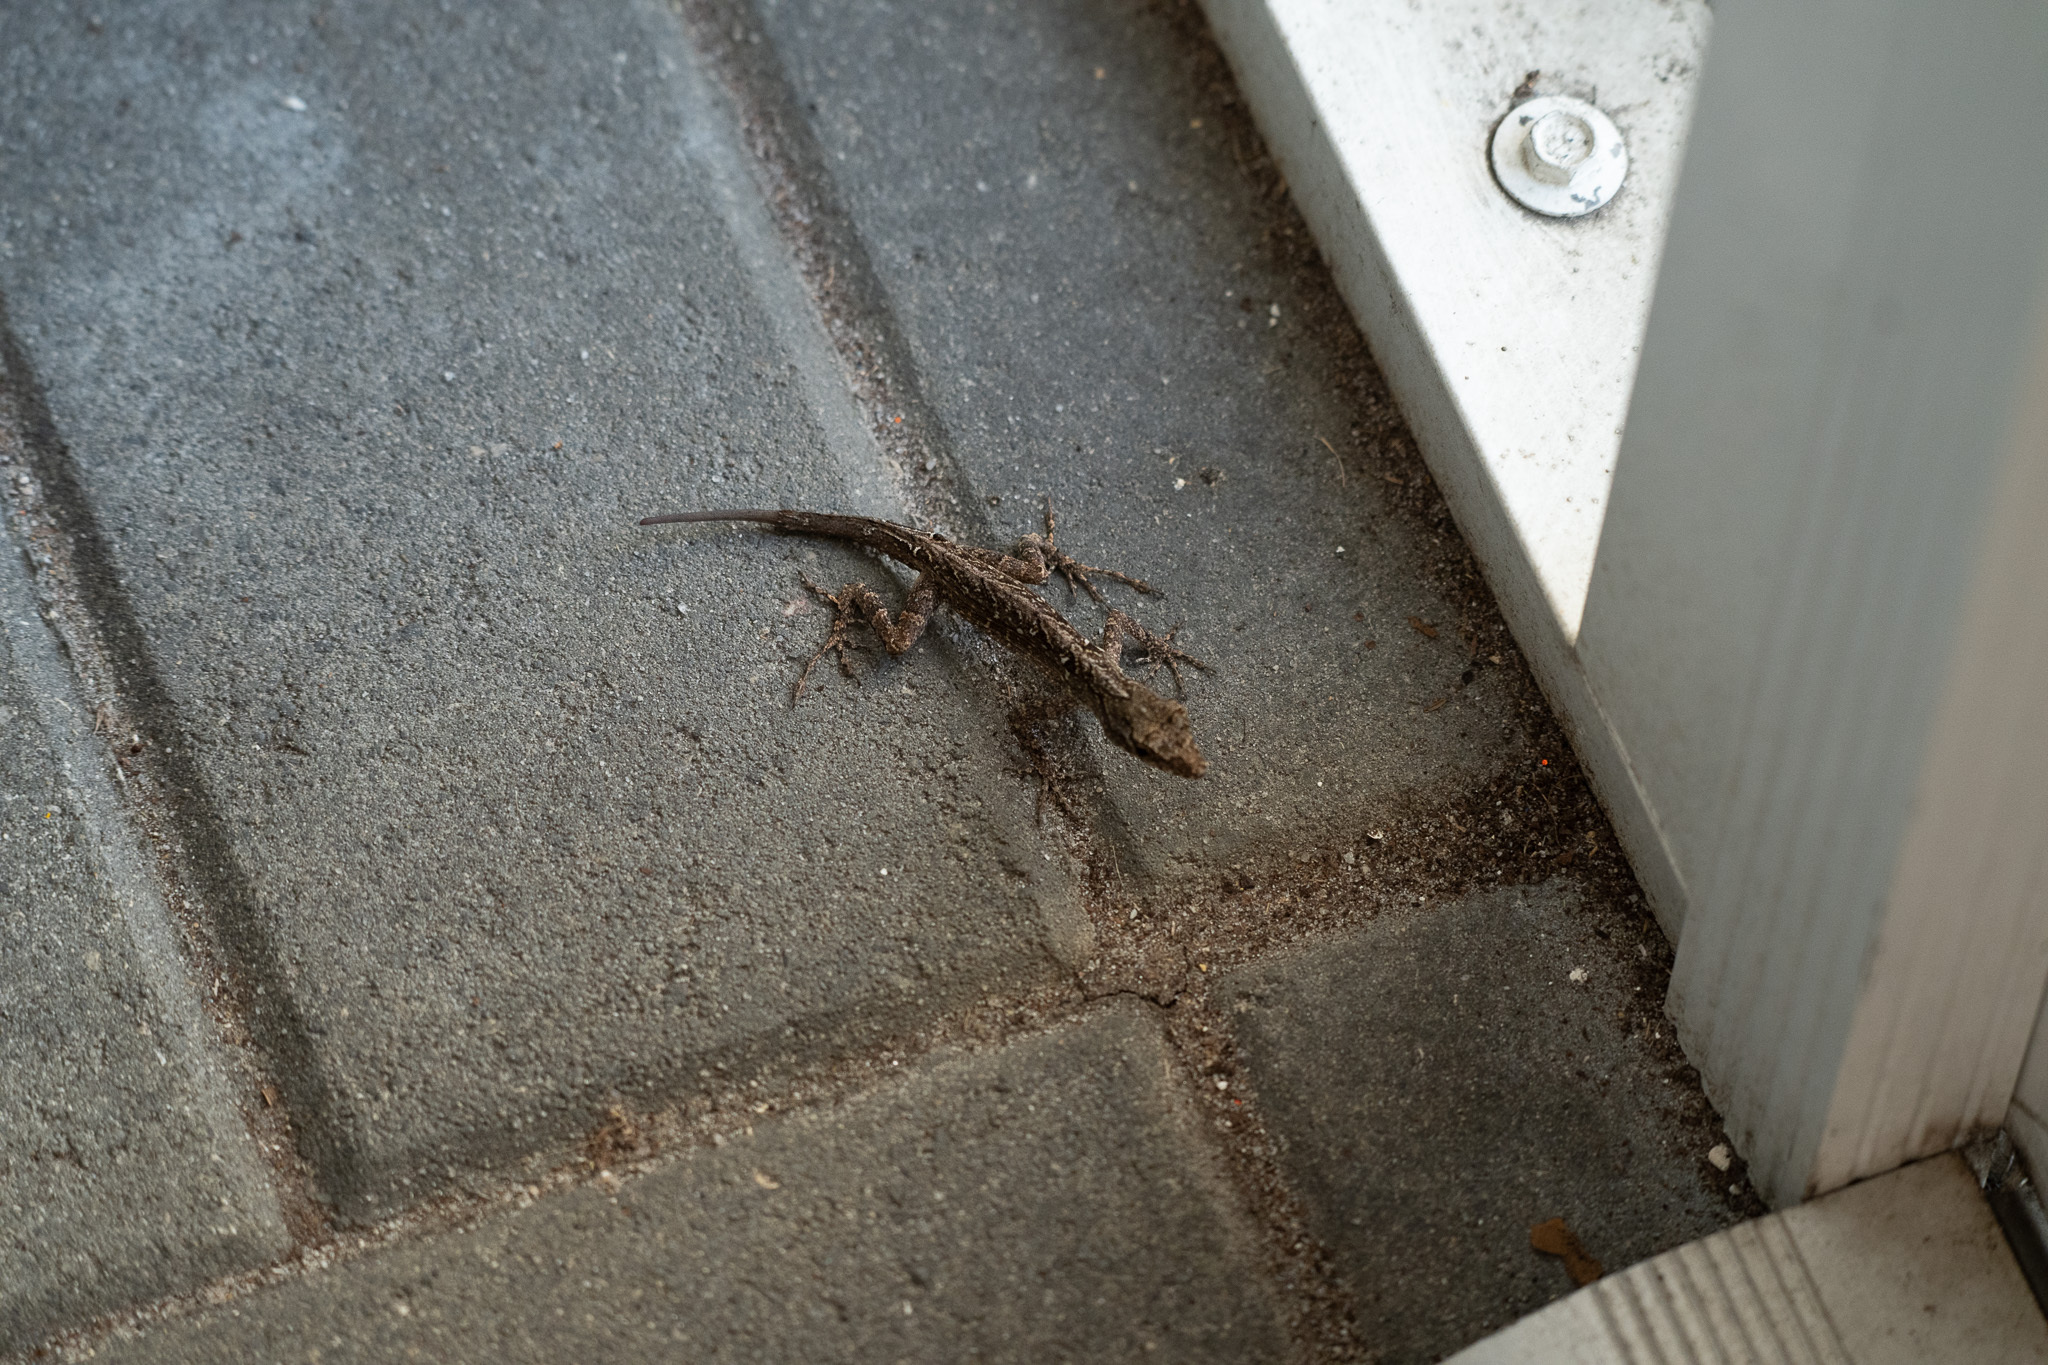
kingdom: Animalia
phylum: Chordata
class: Squamata
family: Dactyloidae
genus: Anolis
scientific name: Anolis sagrei
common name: Brown anole
